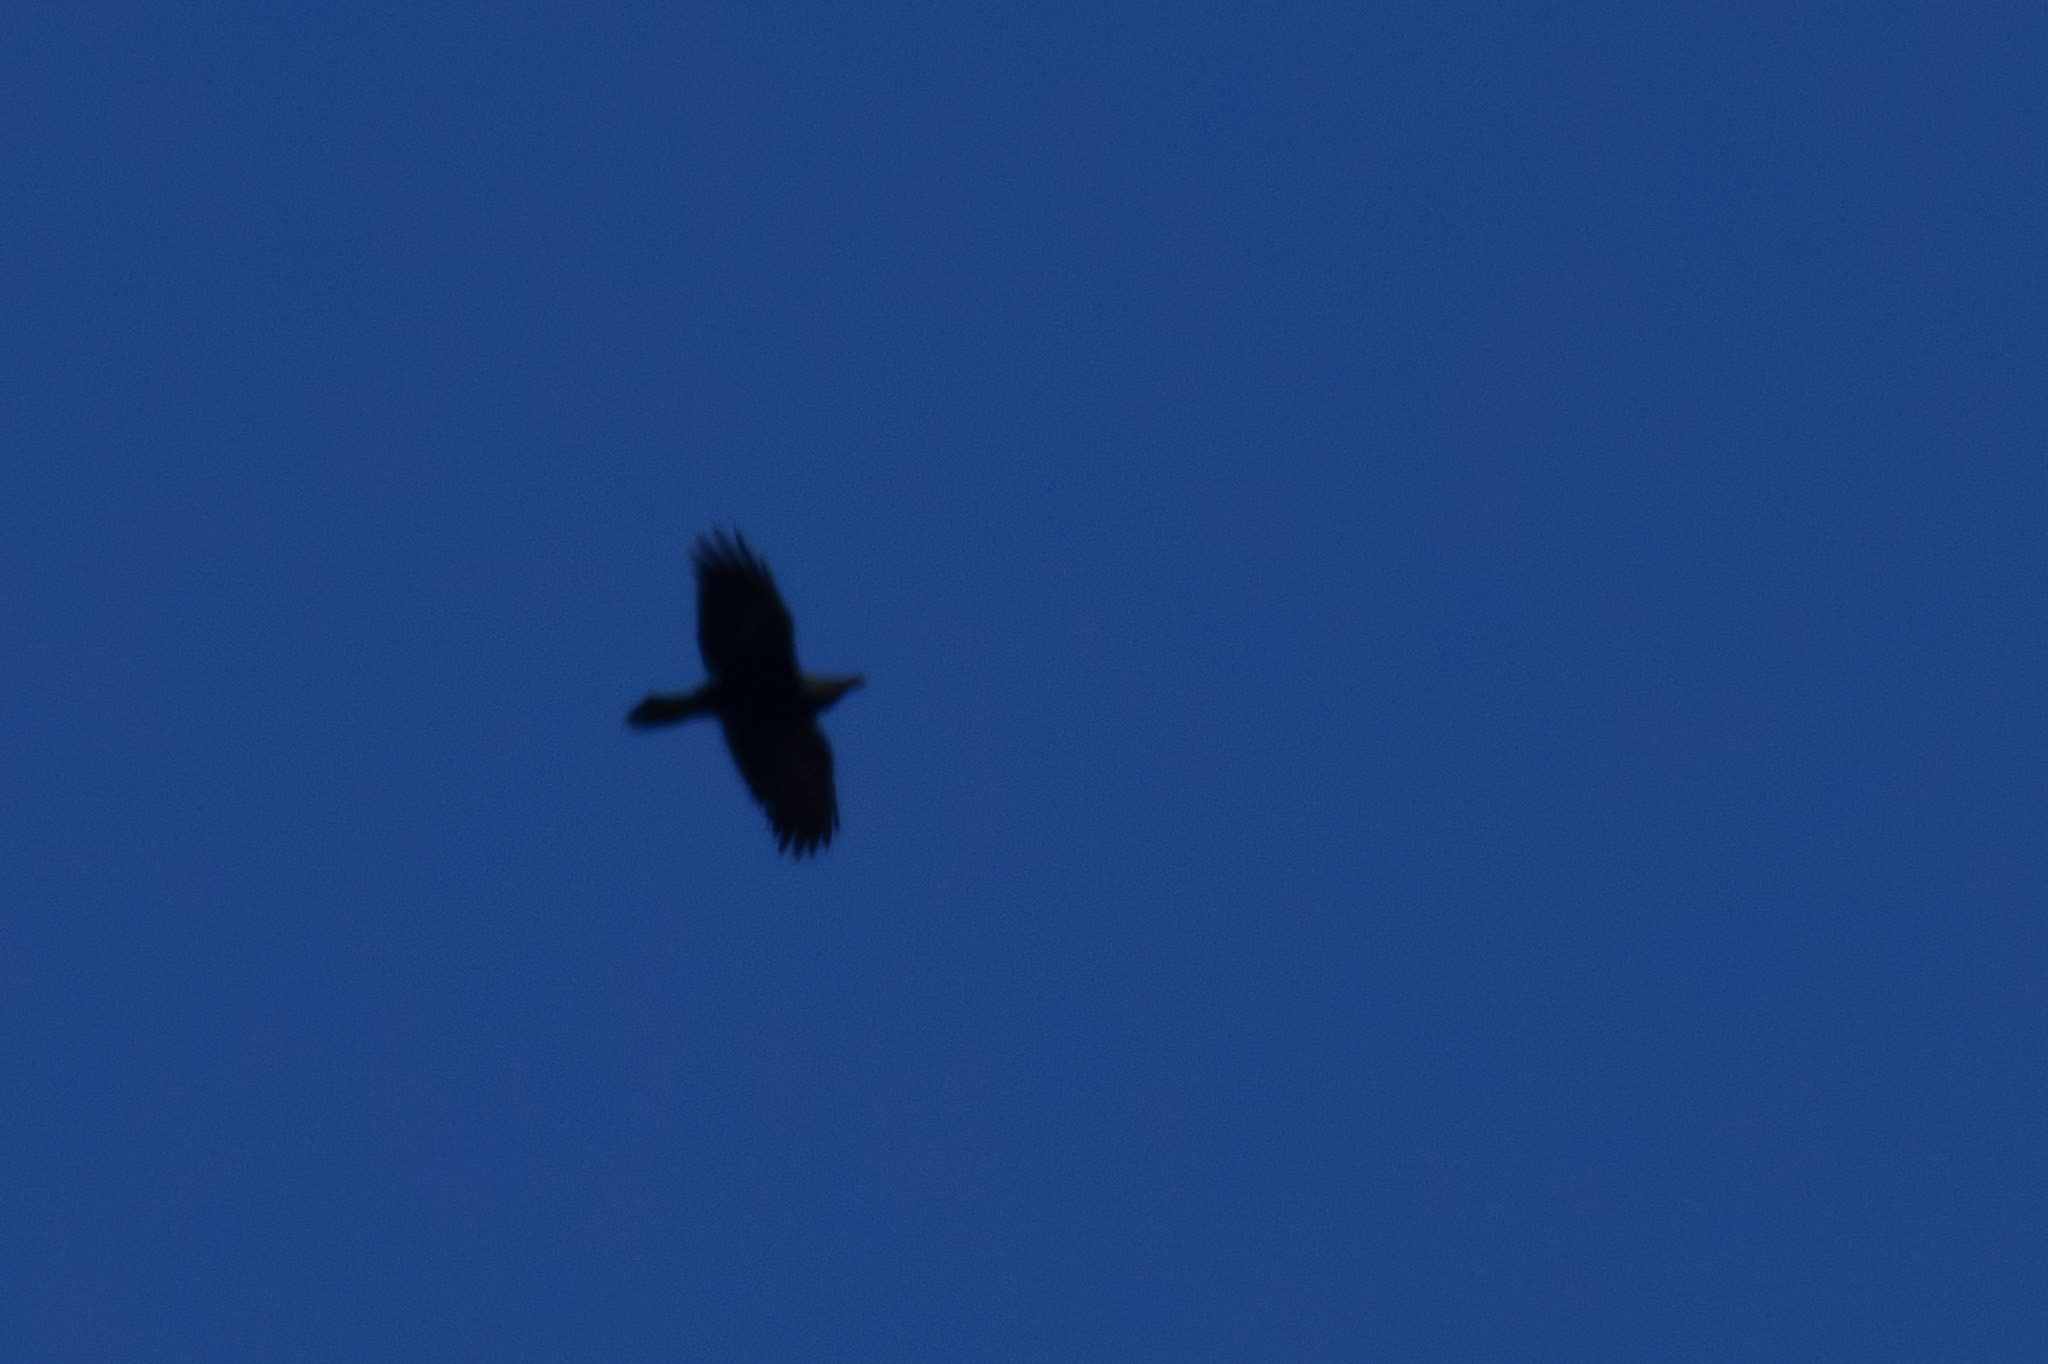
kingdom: Animalia
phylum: Chordata
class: Aves
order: Passeriformes
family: Corvidae
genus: Corvus
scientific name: Corvus corax
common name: Common raven
